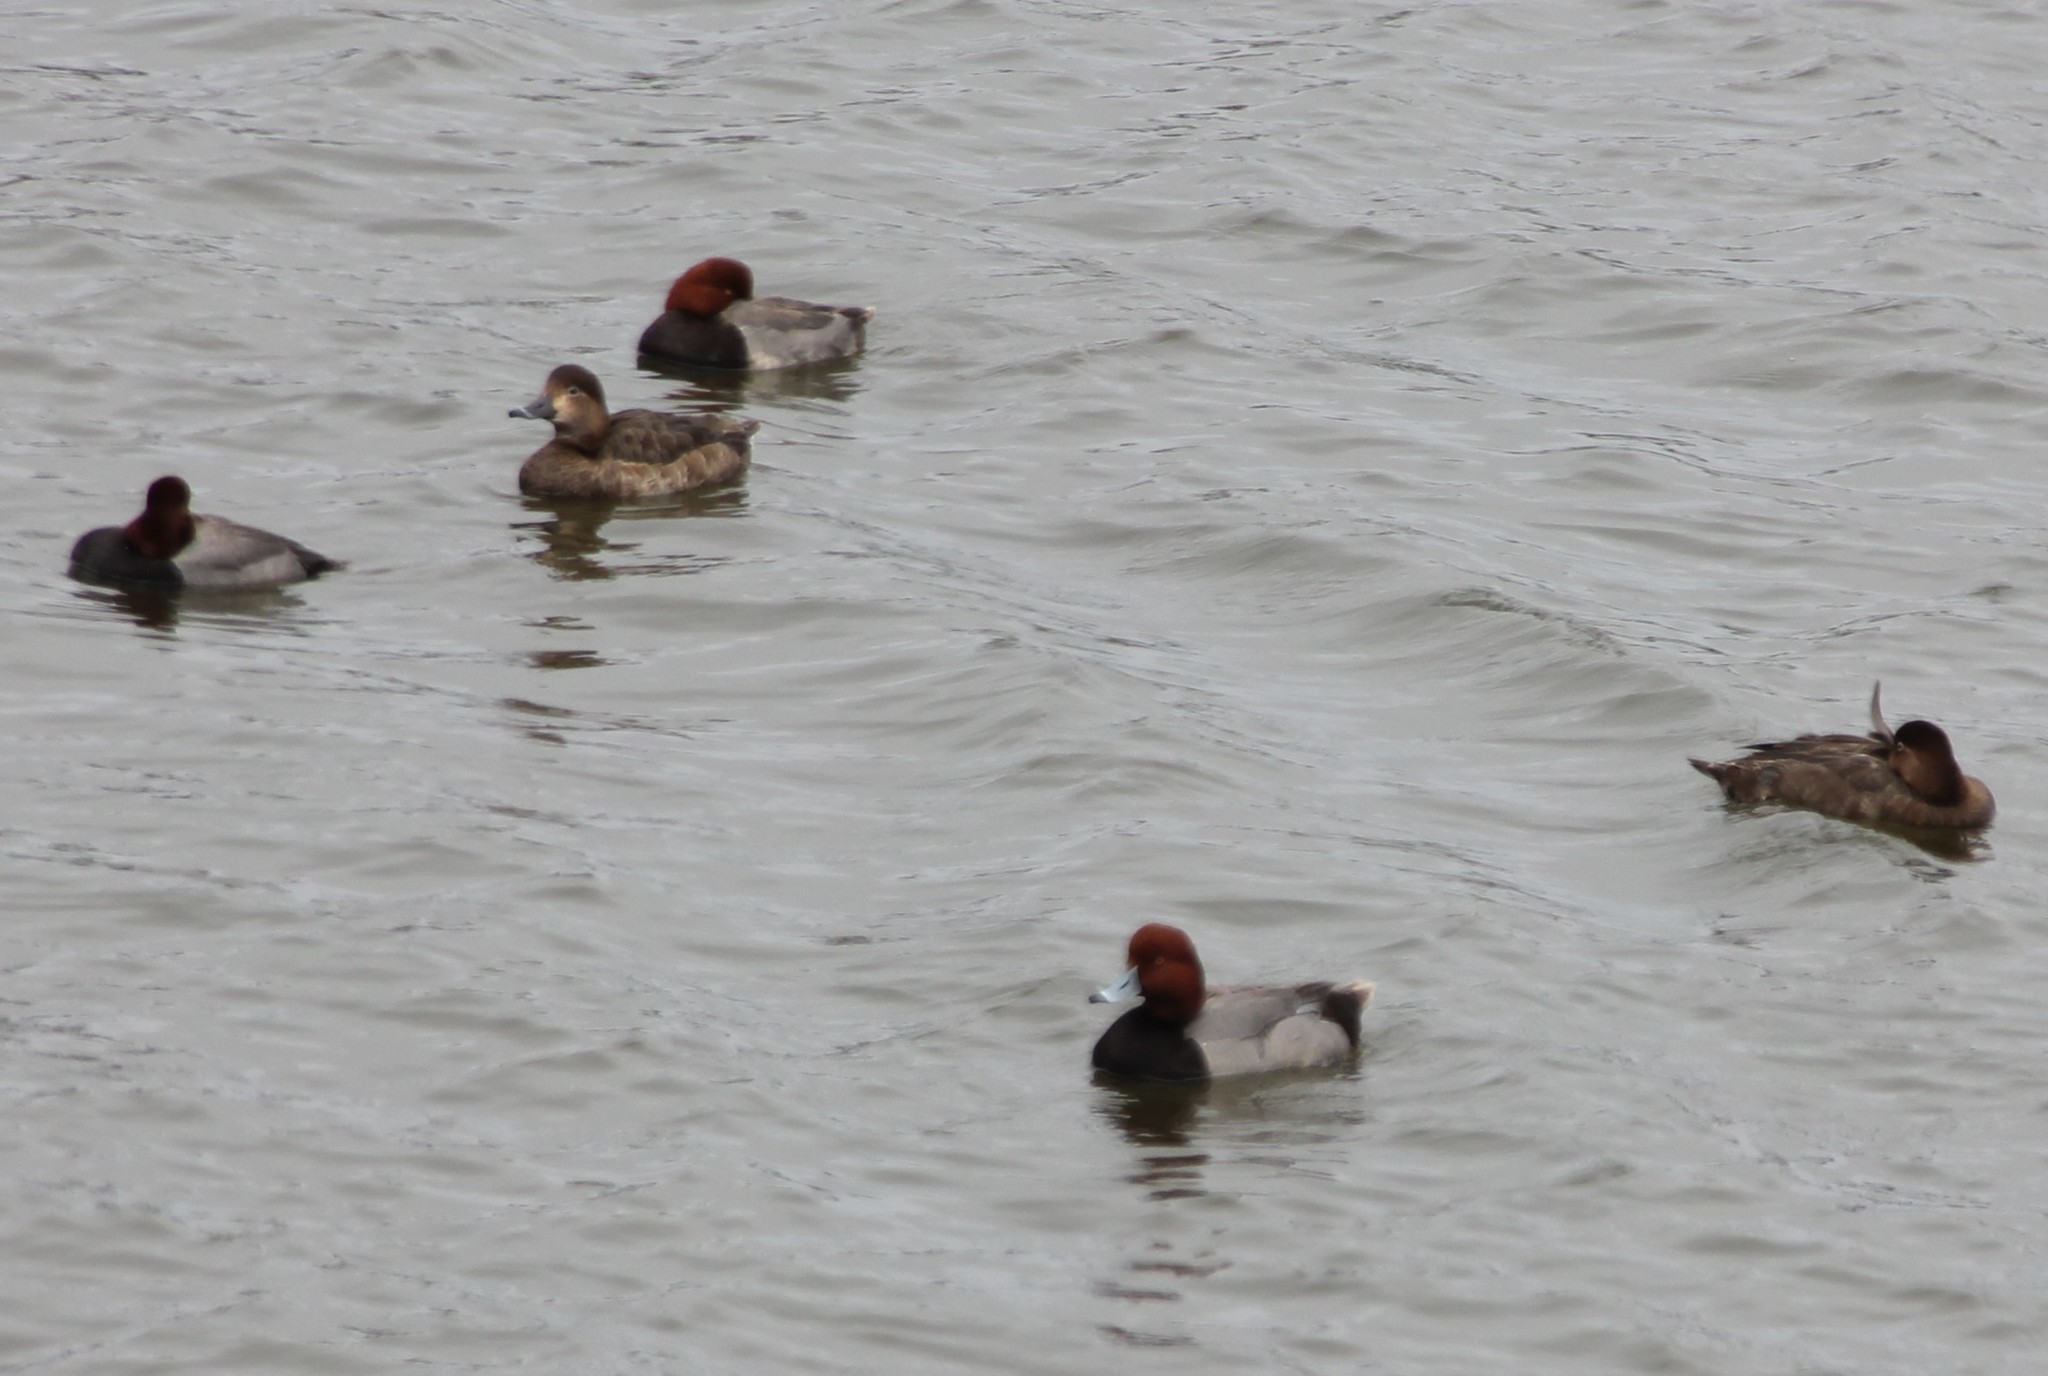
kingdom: Animalia
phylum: Chordata
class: Aves
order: Anseriformes
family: Anatidae
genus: Aythya
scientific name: Aythya americana
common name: Redhead
